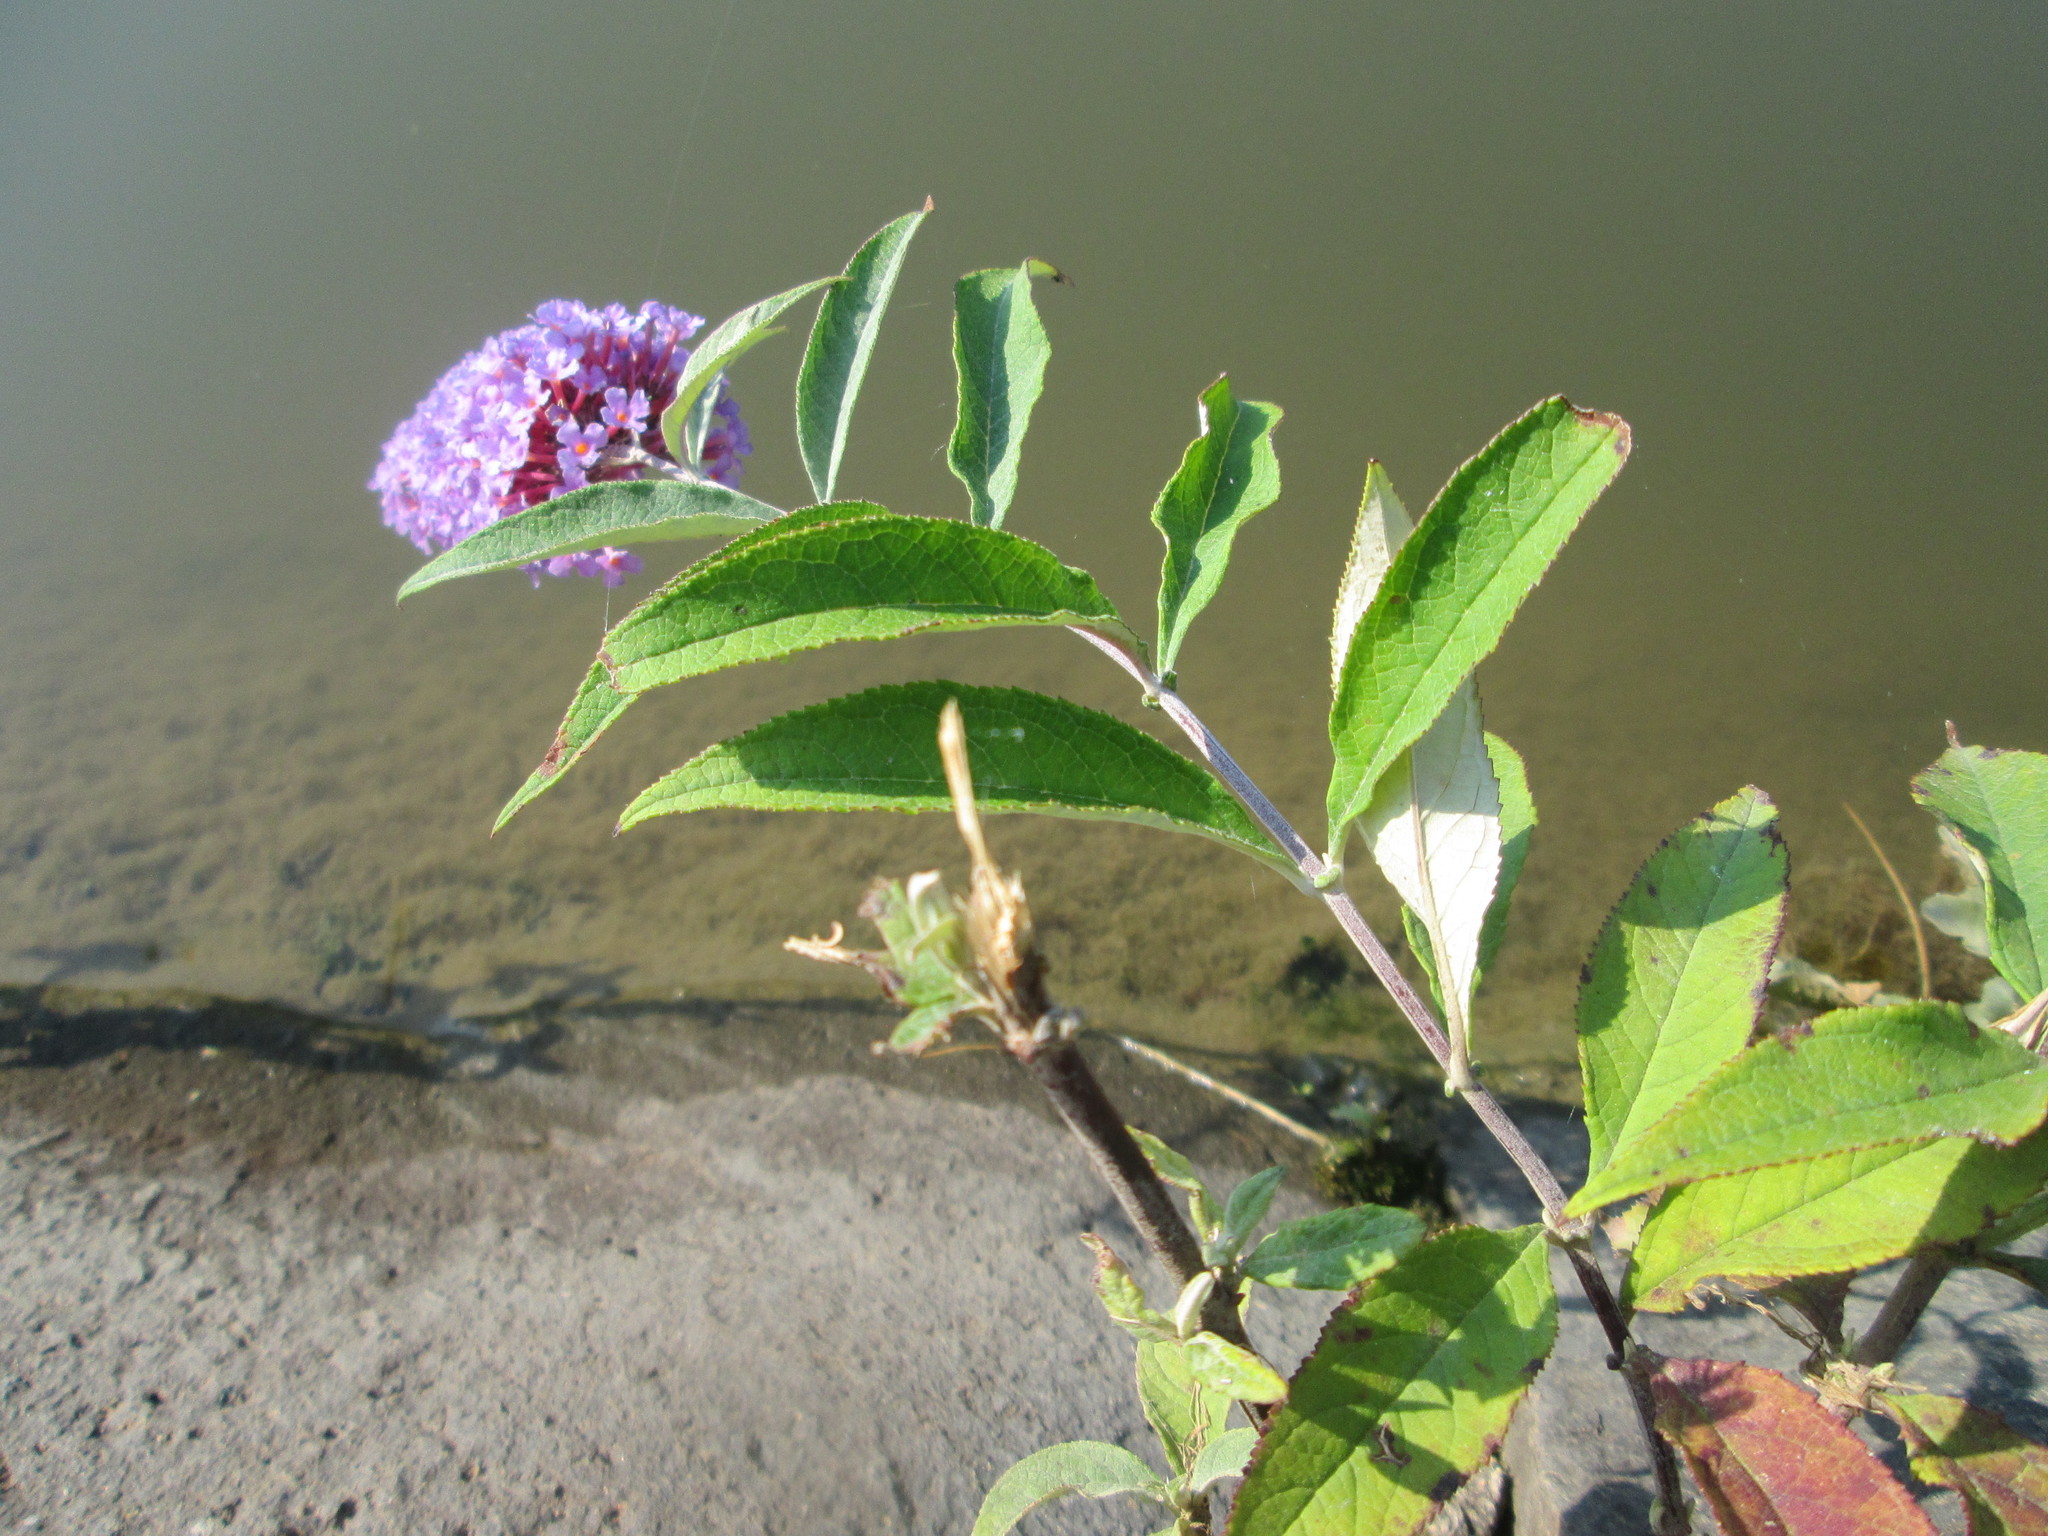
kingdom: Plantae
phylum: Tracheophyta
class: Magnoliopsida
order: Lamiales
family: Scrophulariaceae
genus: Buddleja
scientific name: Buddleja davidii
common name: Butterfly-bush
